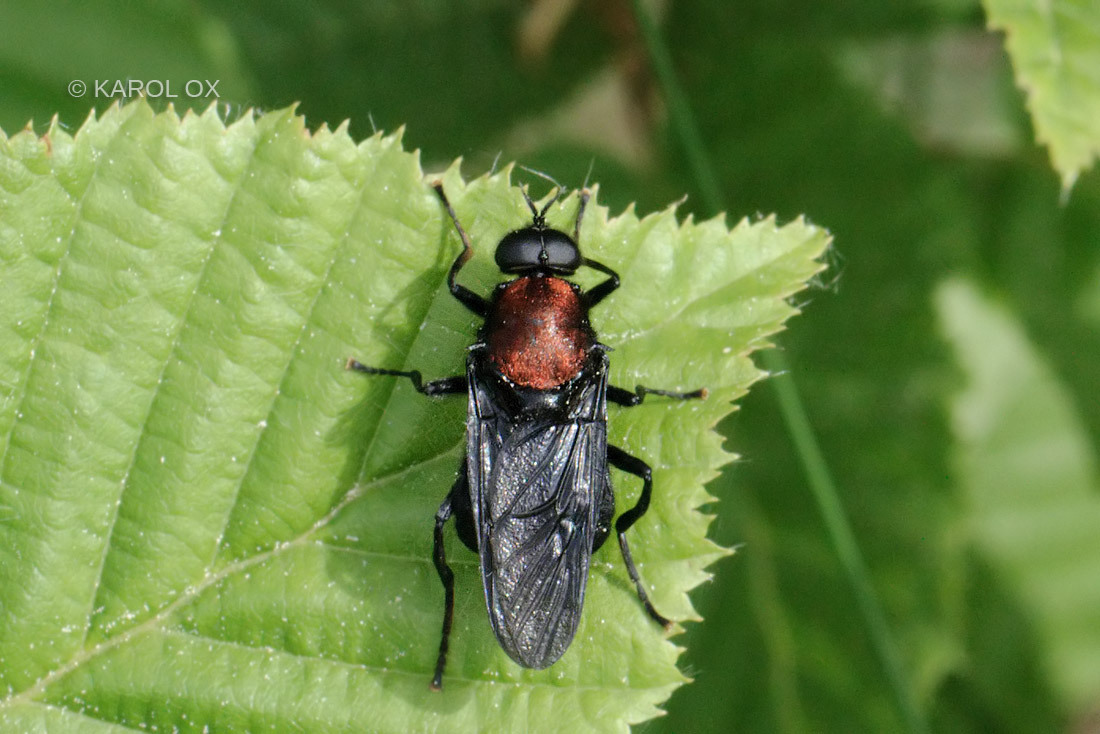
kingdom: Animalia
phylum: Arthropoda
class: Insecta
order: Diptera
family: Stratiomyidae
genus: Clitellaria
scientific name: Clitellaria ephippium
